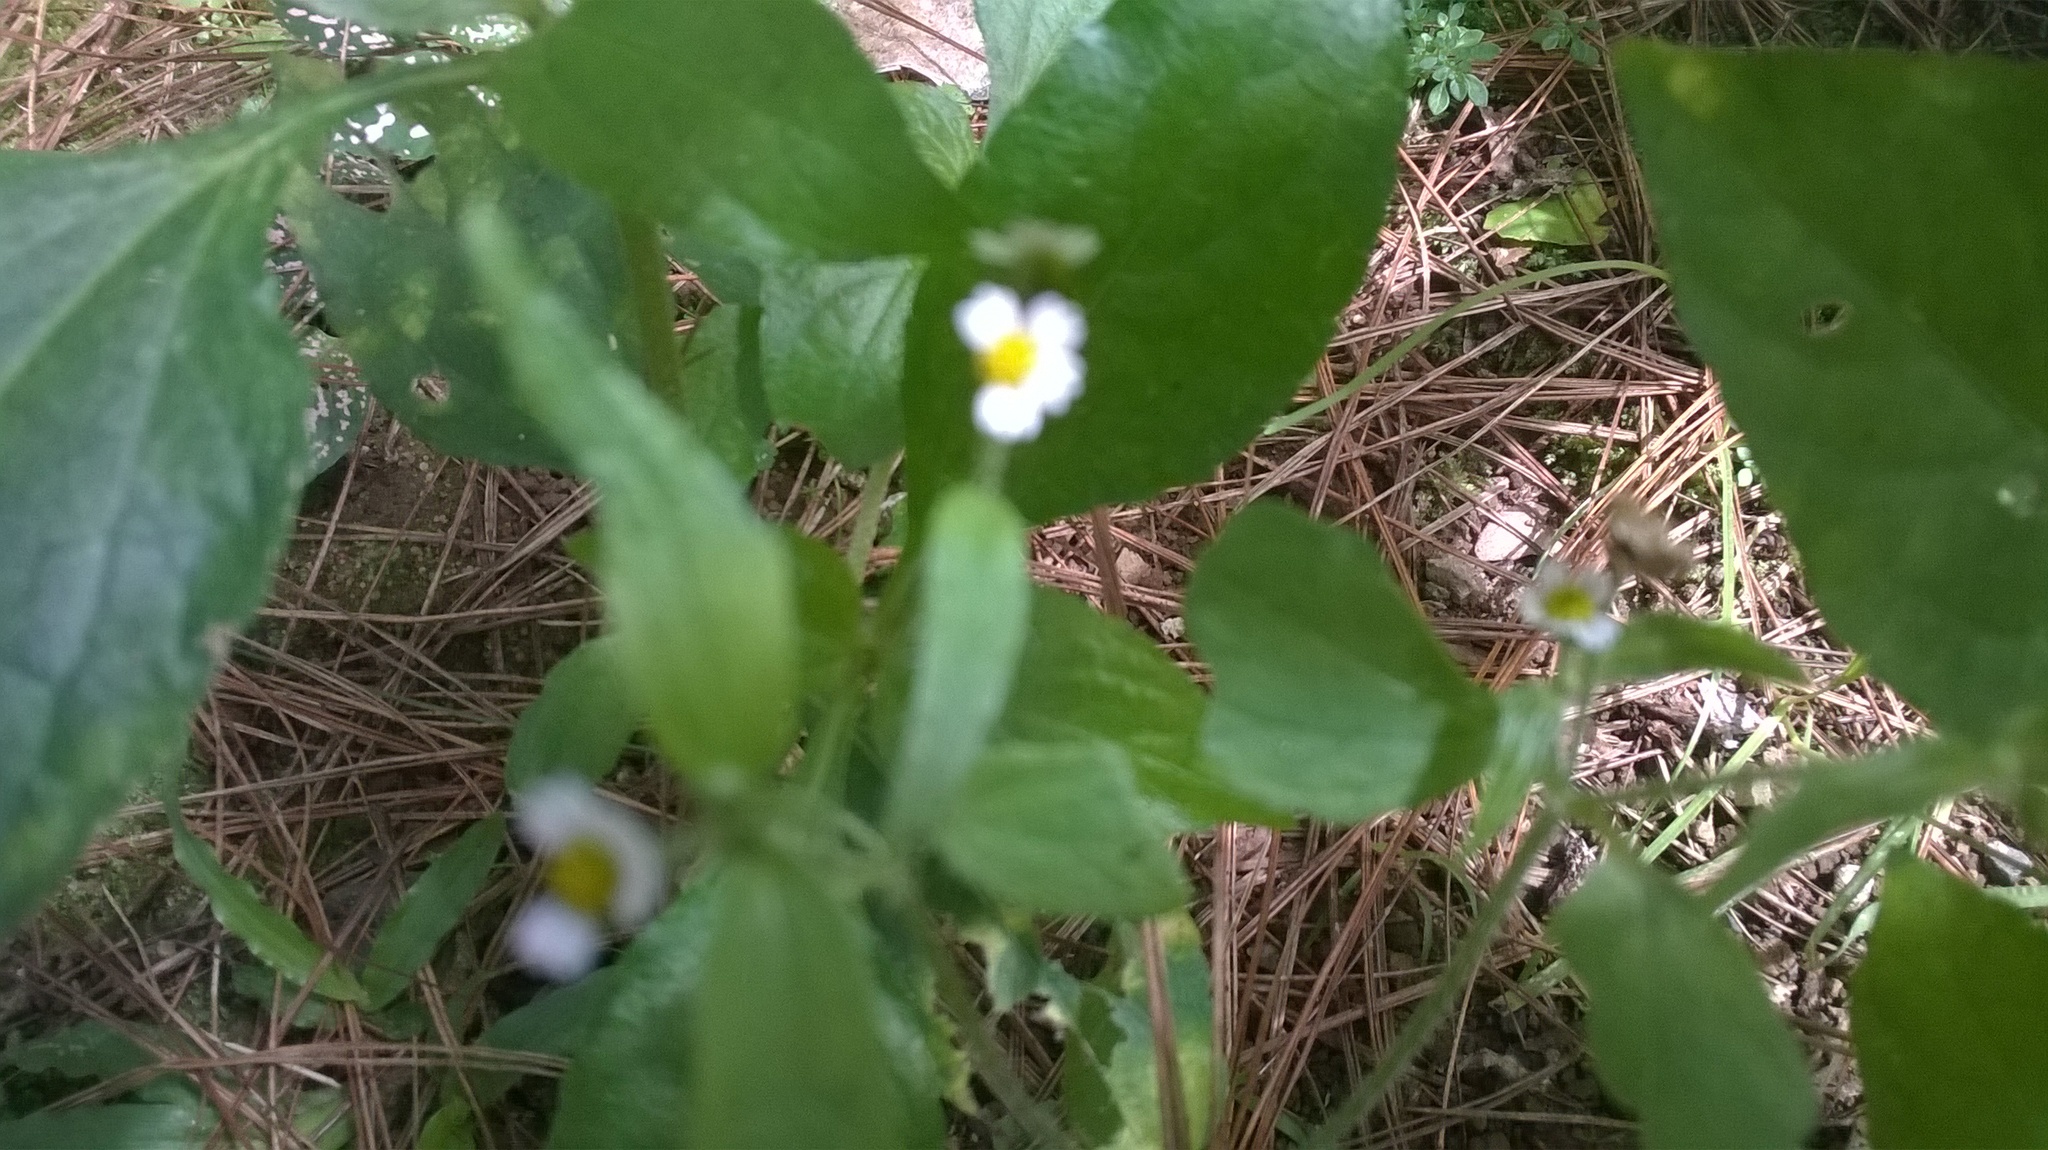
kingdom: Plantae
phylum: Tracheophyta
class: Magnoliopsida
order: Asterales
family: Asteraceae
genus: Galinsoga
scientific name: Galinsoga quadriradiata
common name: Shaggy soldier
